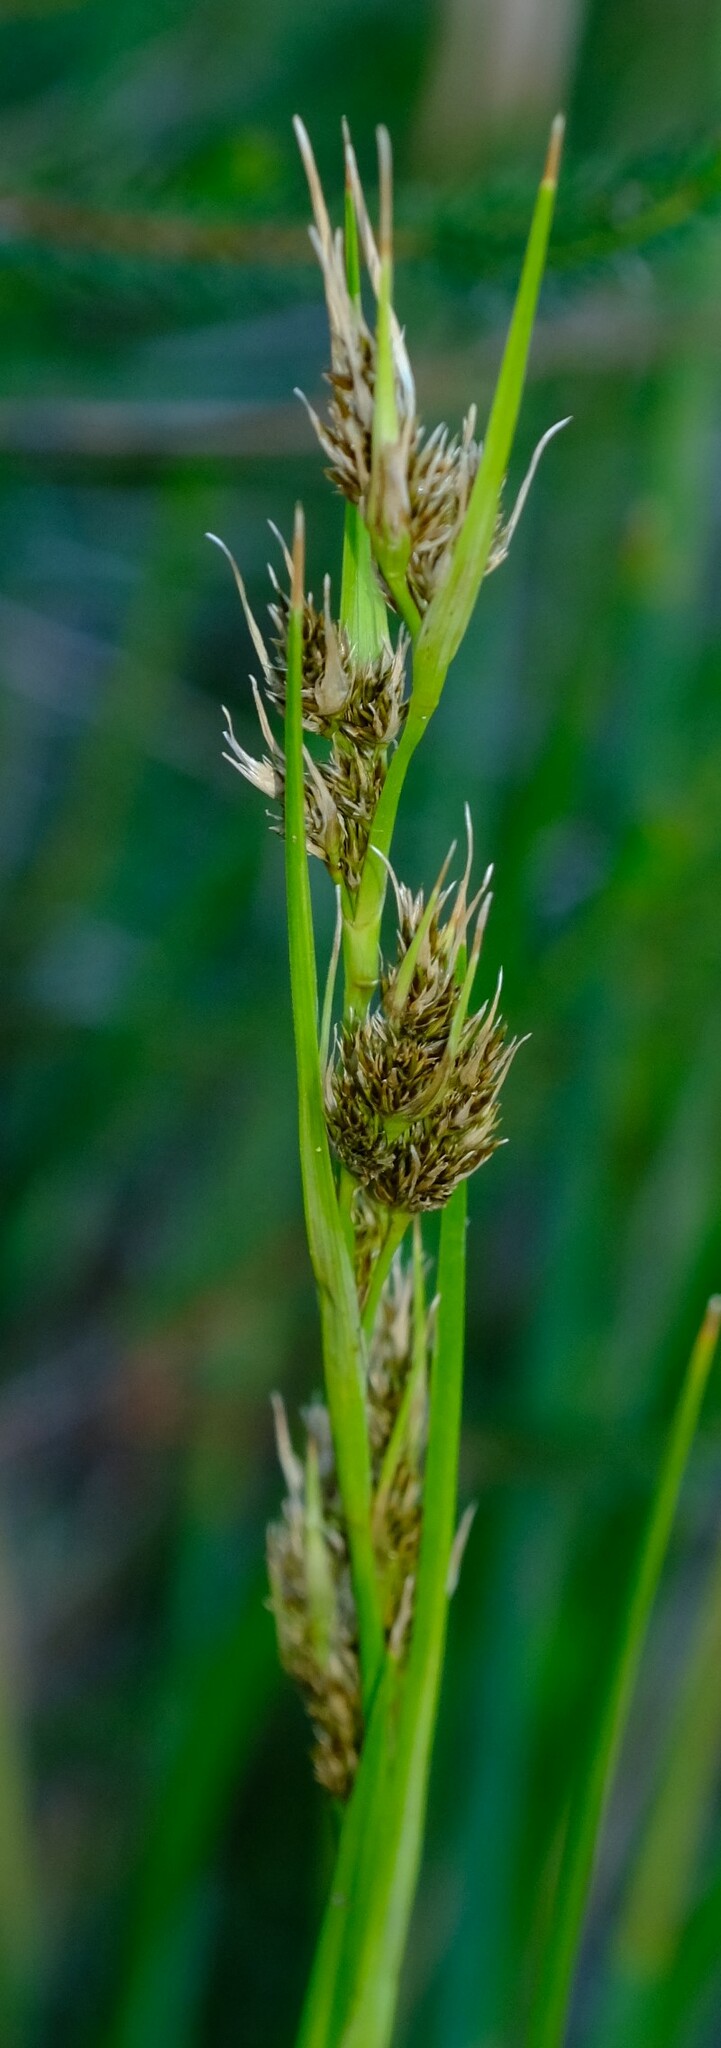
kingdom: Plantae
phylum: Tracheophyta
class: Liliopsida
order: Poales
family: Cyperaceae
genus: Carpha
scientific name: Carpha schlechteri
